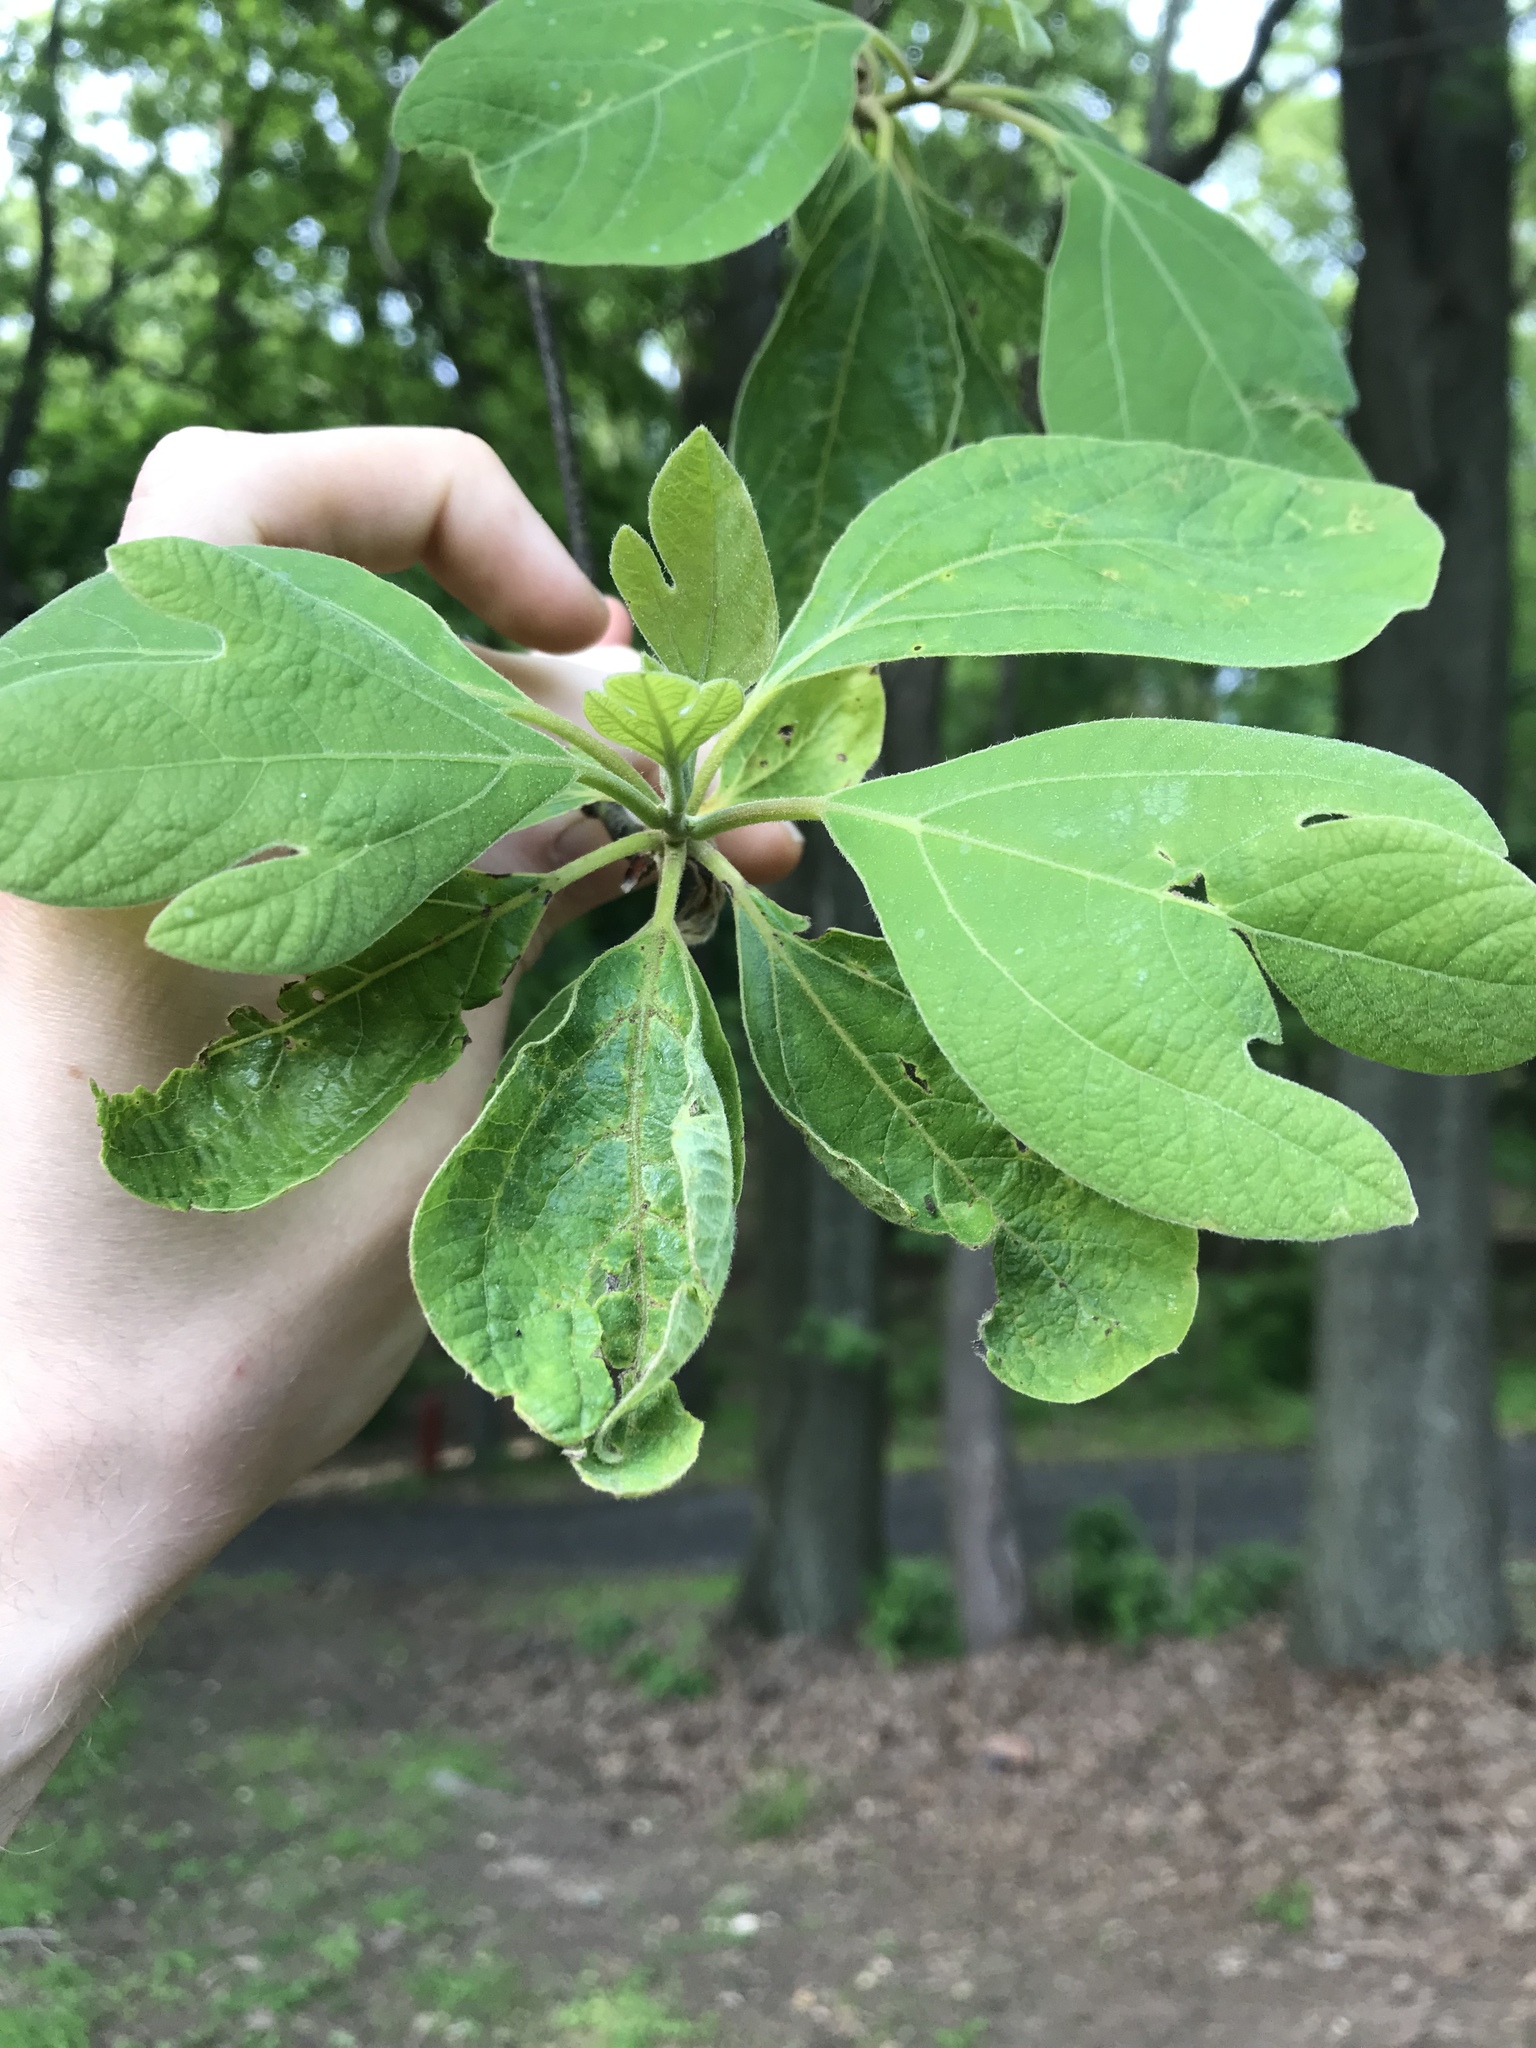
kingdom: Plantae
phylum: Tracheophyta
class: Magnoliopsida
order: Laurales
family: Lauraceae
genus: Sassafras
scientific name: Sassafras albidum
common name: Sassafras
